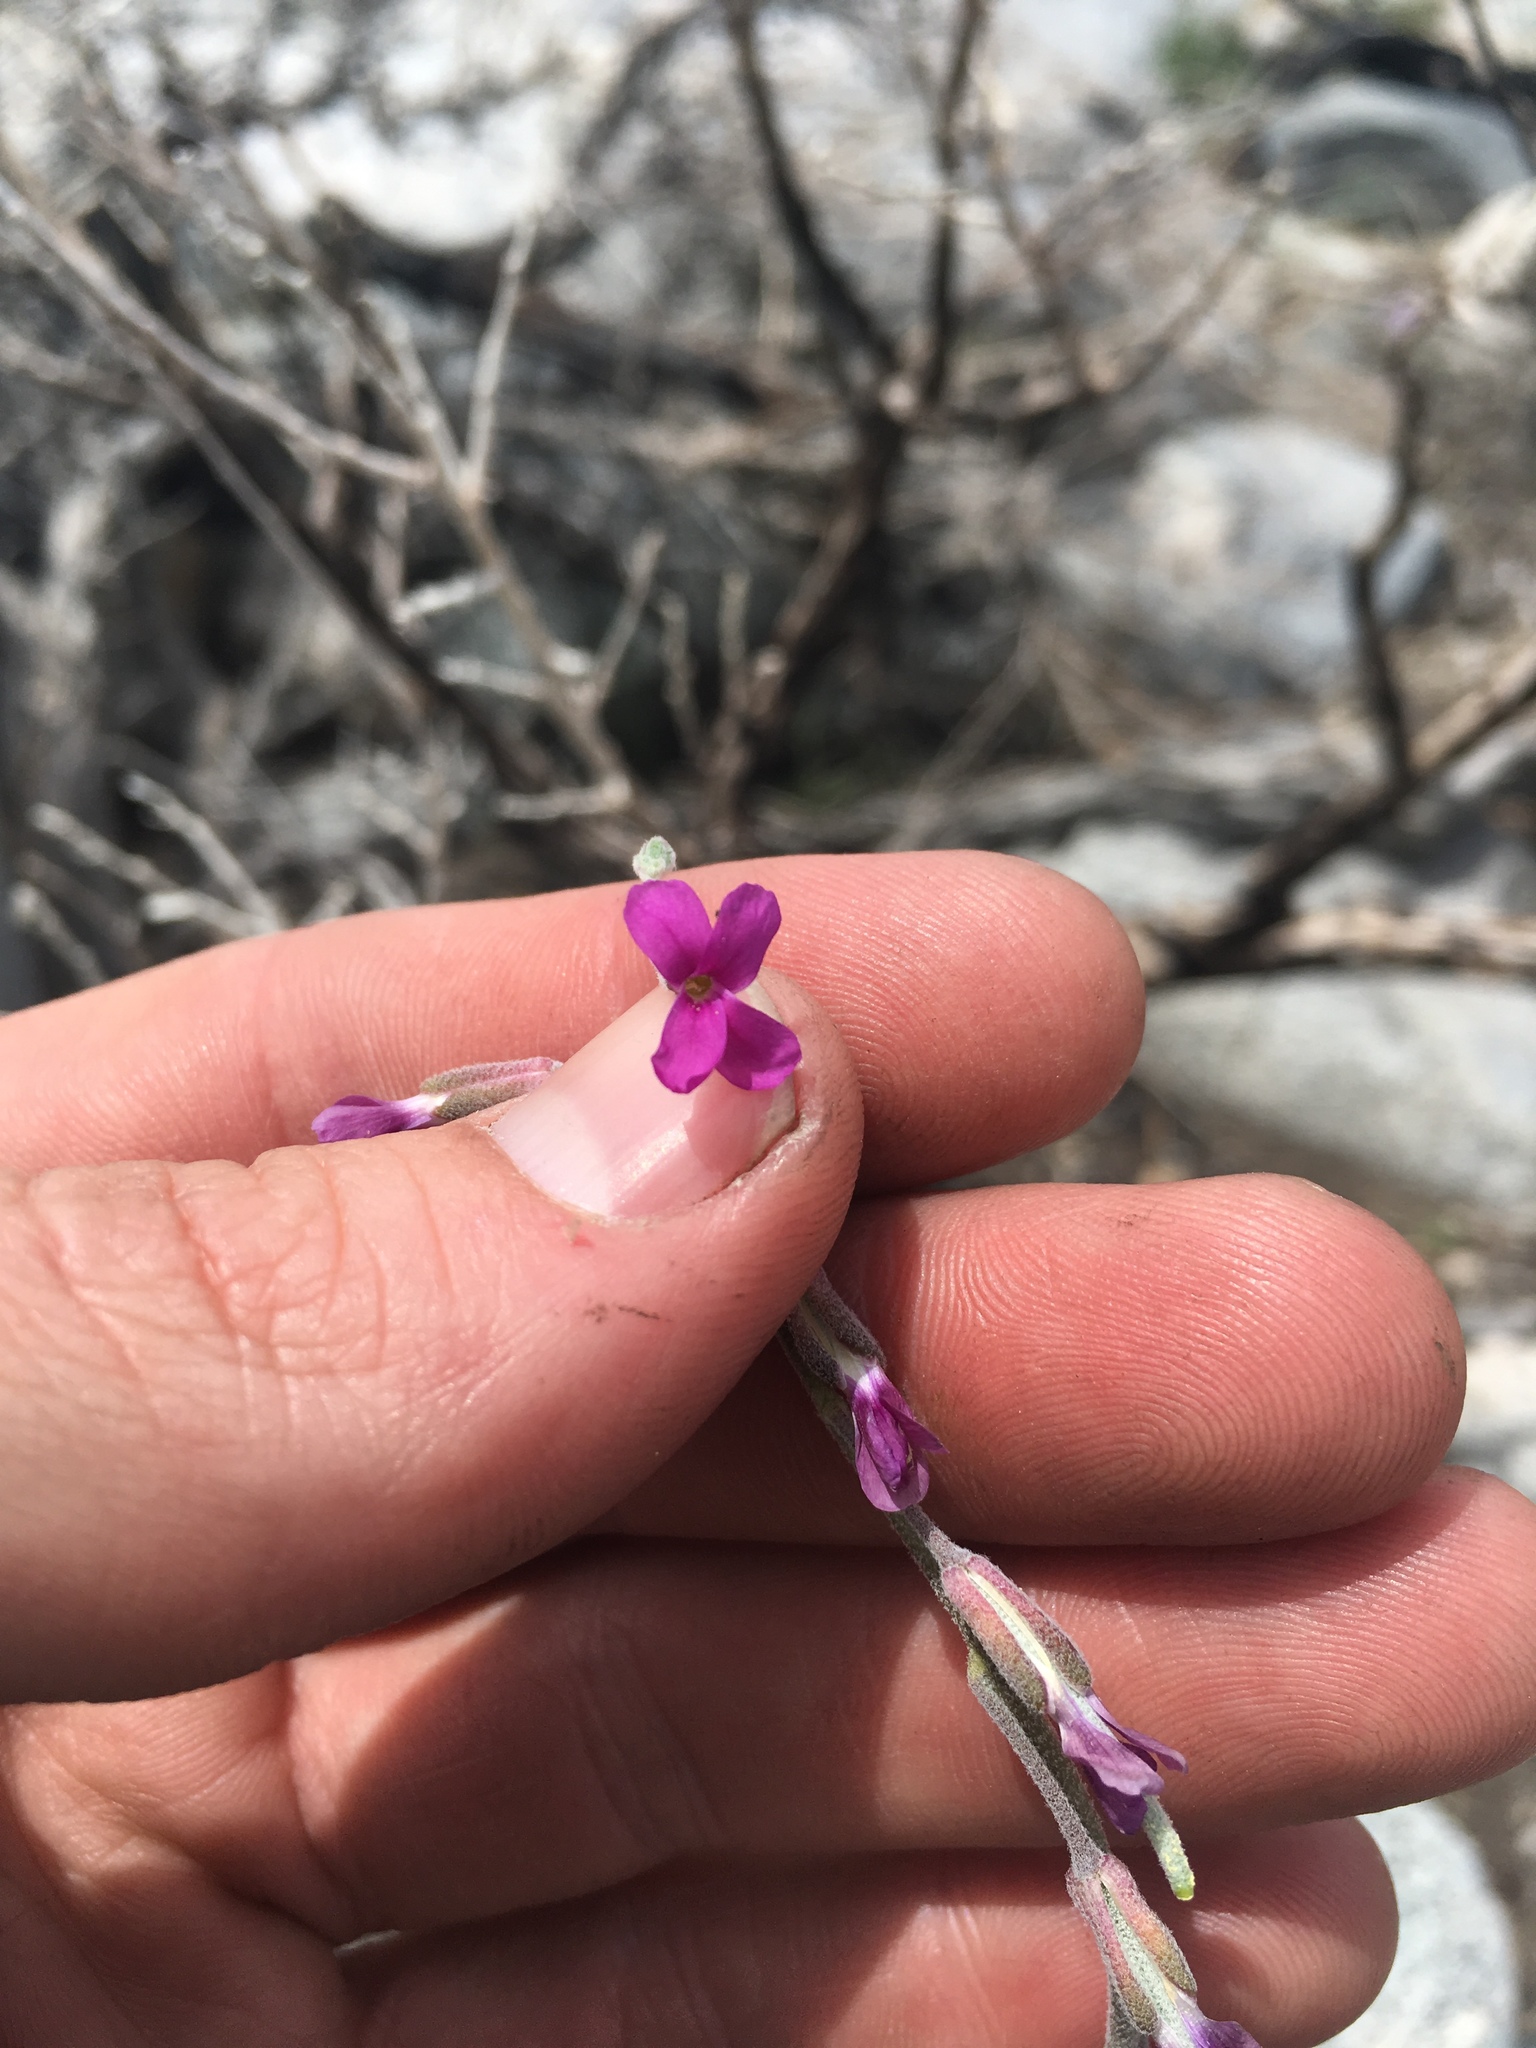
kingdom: Plantae
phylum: Tracheophyta
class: Magnoliopsida
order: Brassicales
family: Brassicaceae
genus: Boechera
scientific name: Boechera pulchra
